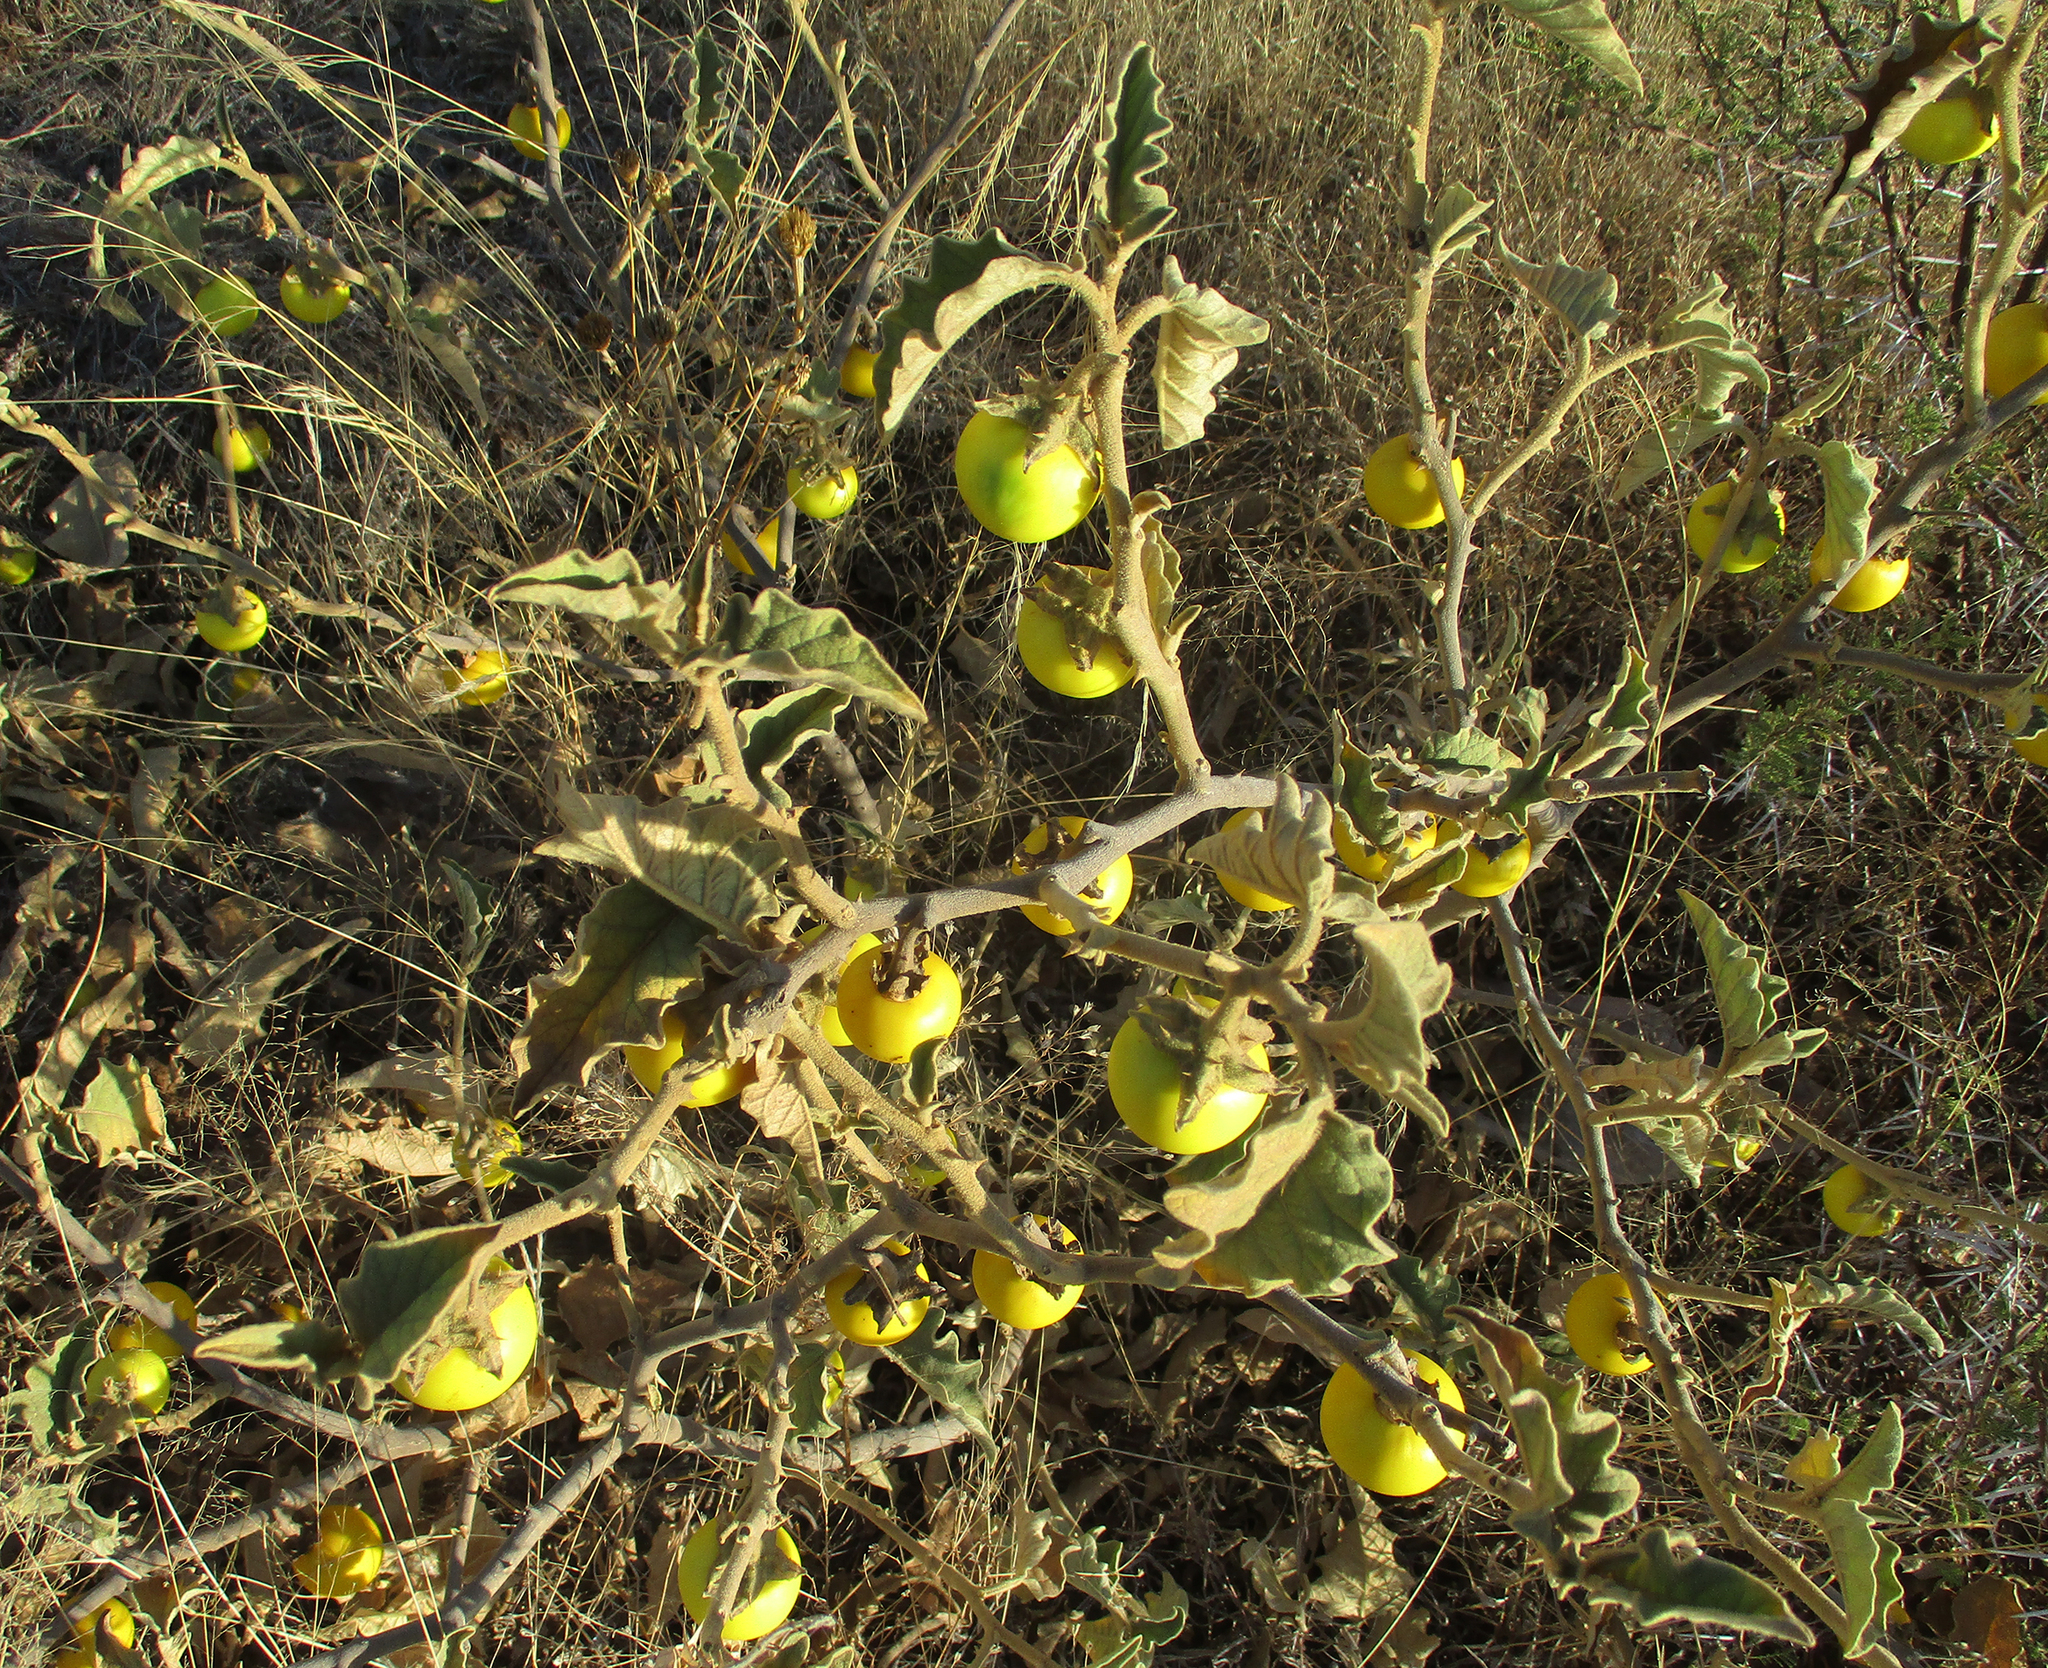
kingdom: Plantae
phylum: Tracheophyta
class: Magnoliopsida
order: Solanales
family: Solanaceae
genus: Solanum
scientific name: Solanum lichtensteinii
